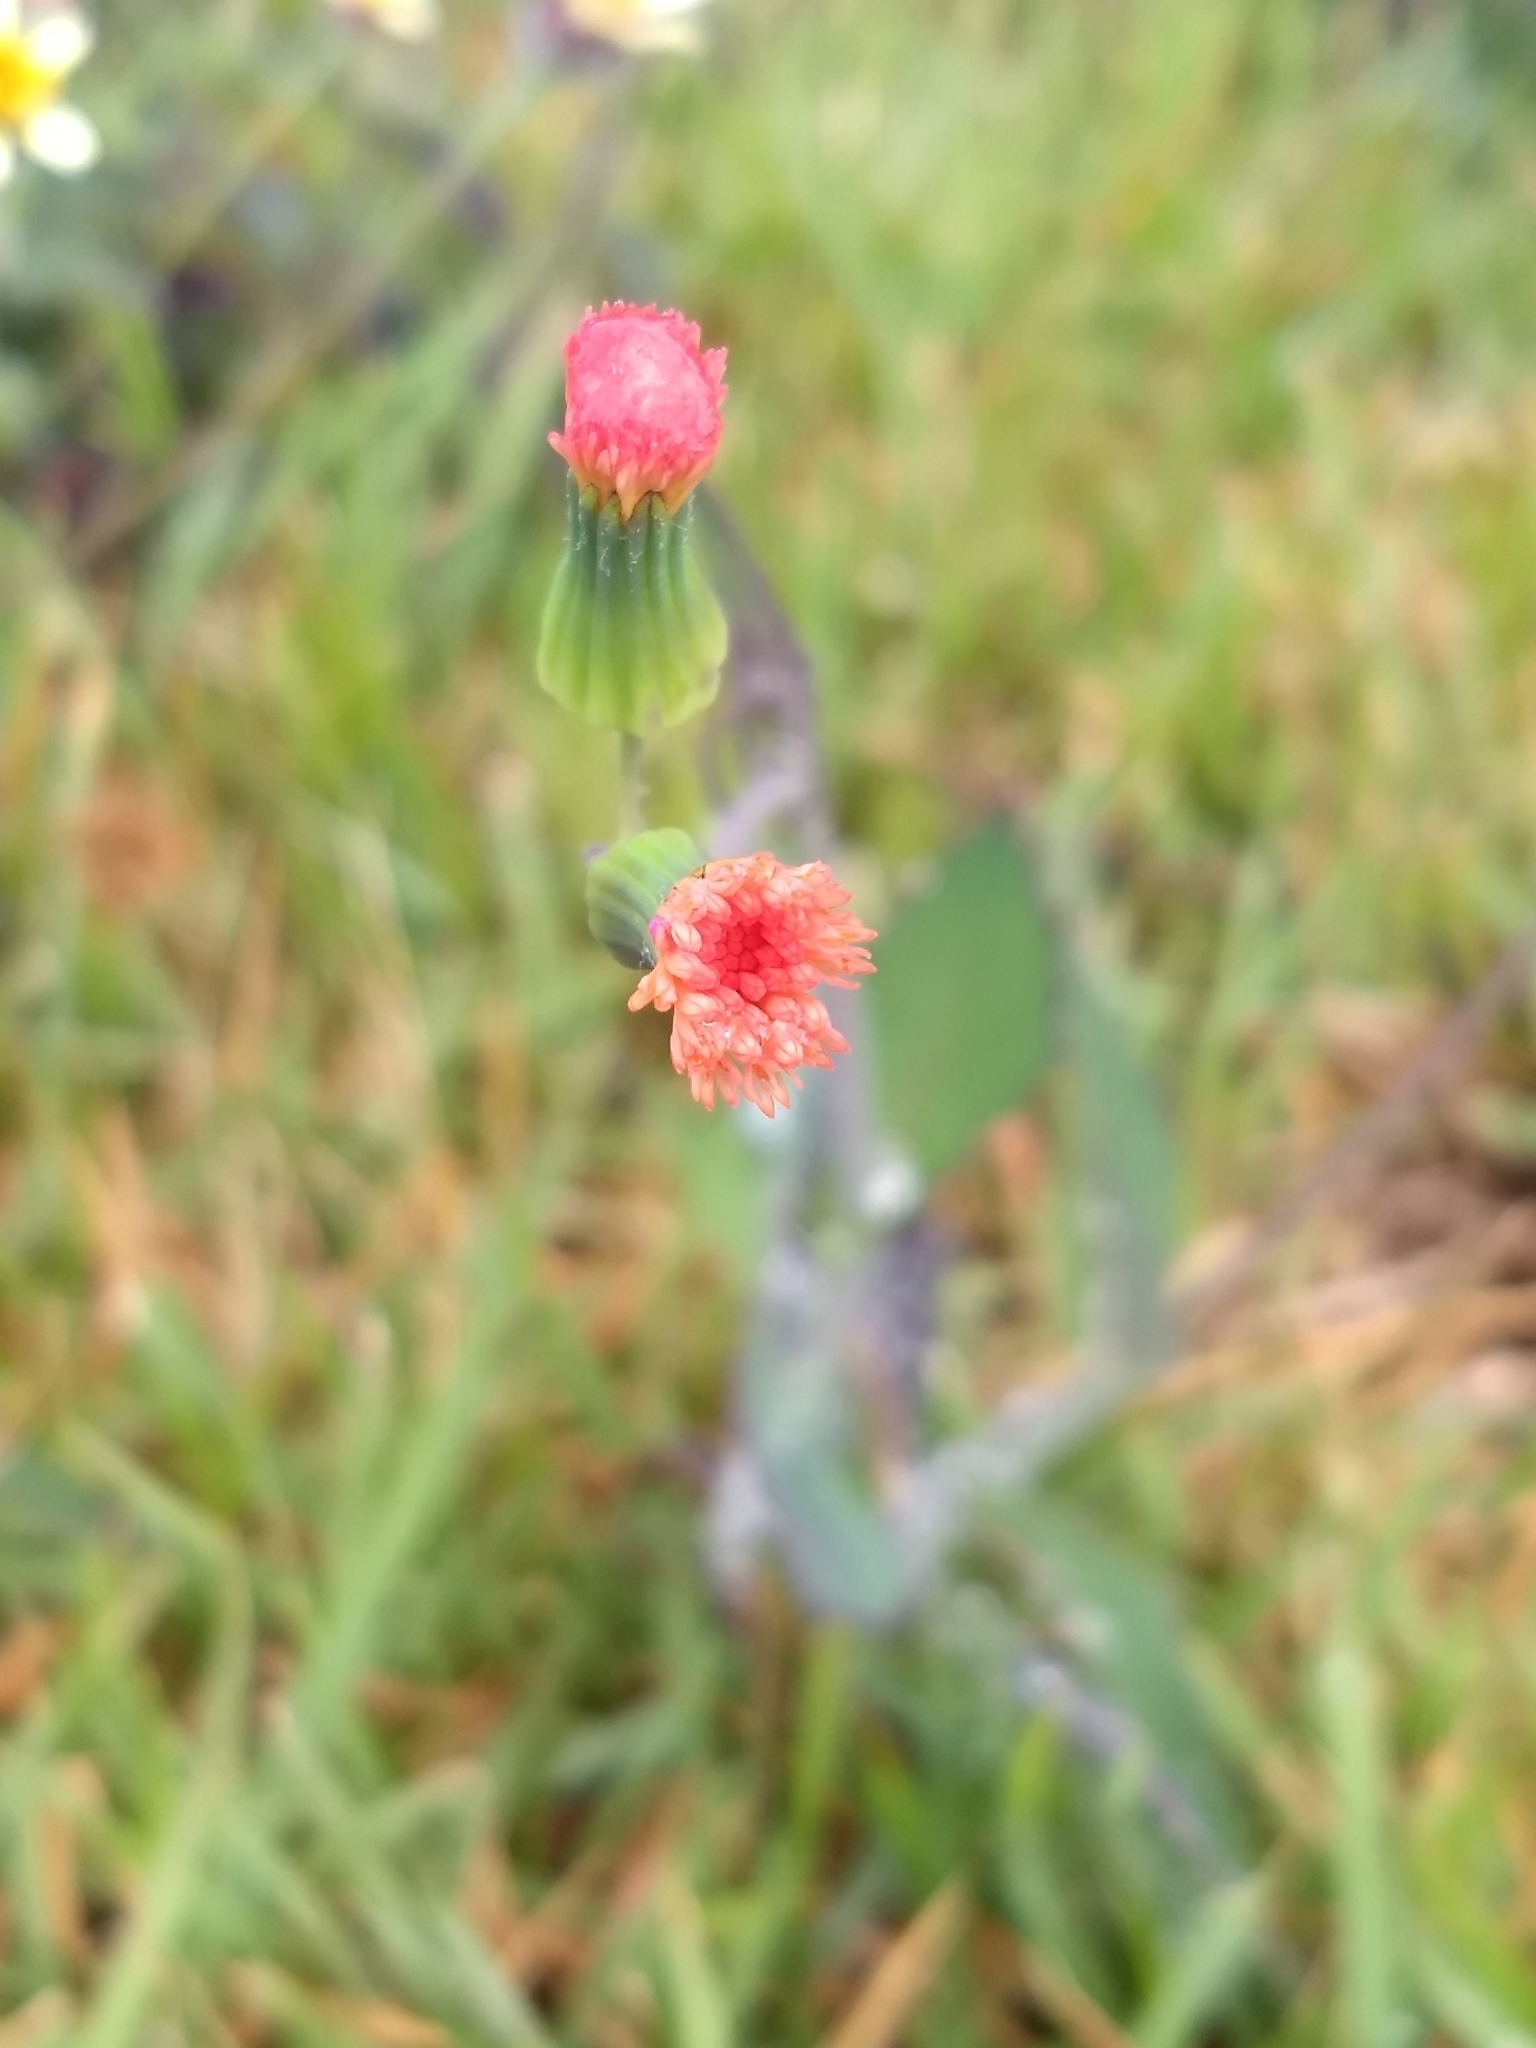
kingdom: Plantae
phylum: Tracheophyta
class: Magnoliopsida
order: Asterales
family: Asteraceae
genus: Emilia
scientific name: Emilia fosbergii
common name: Florida tasselflower
